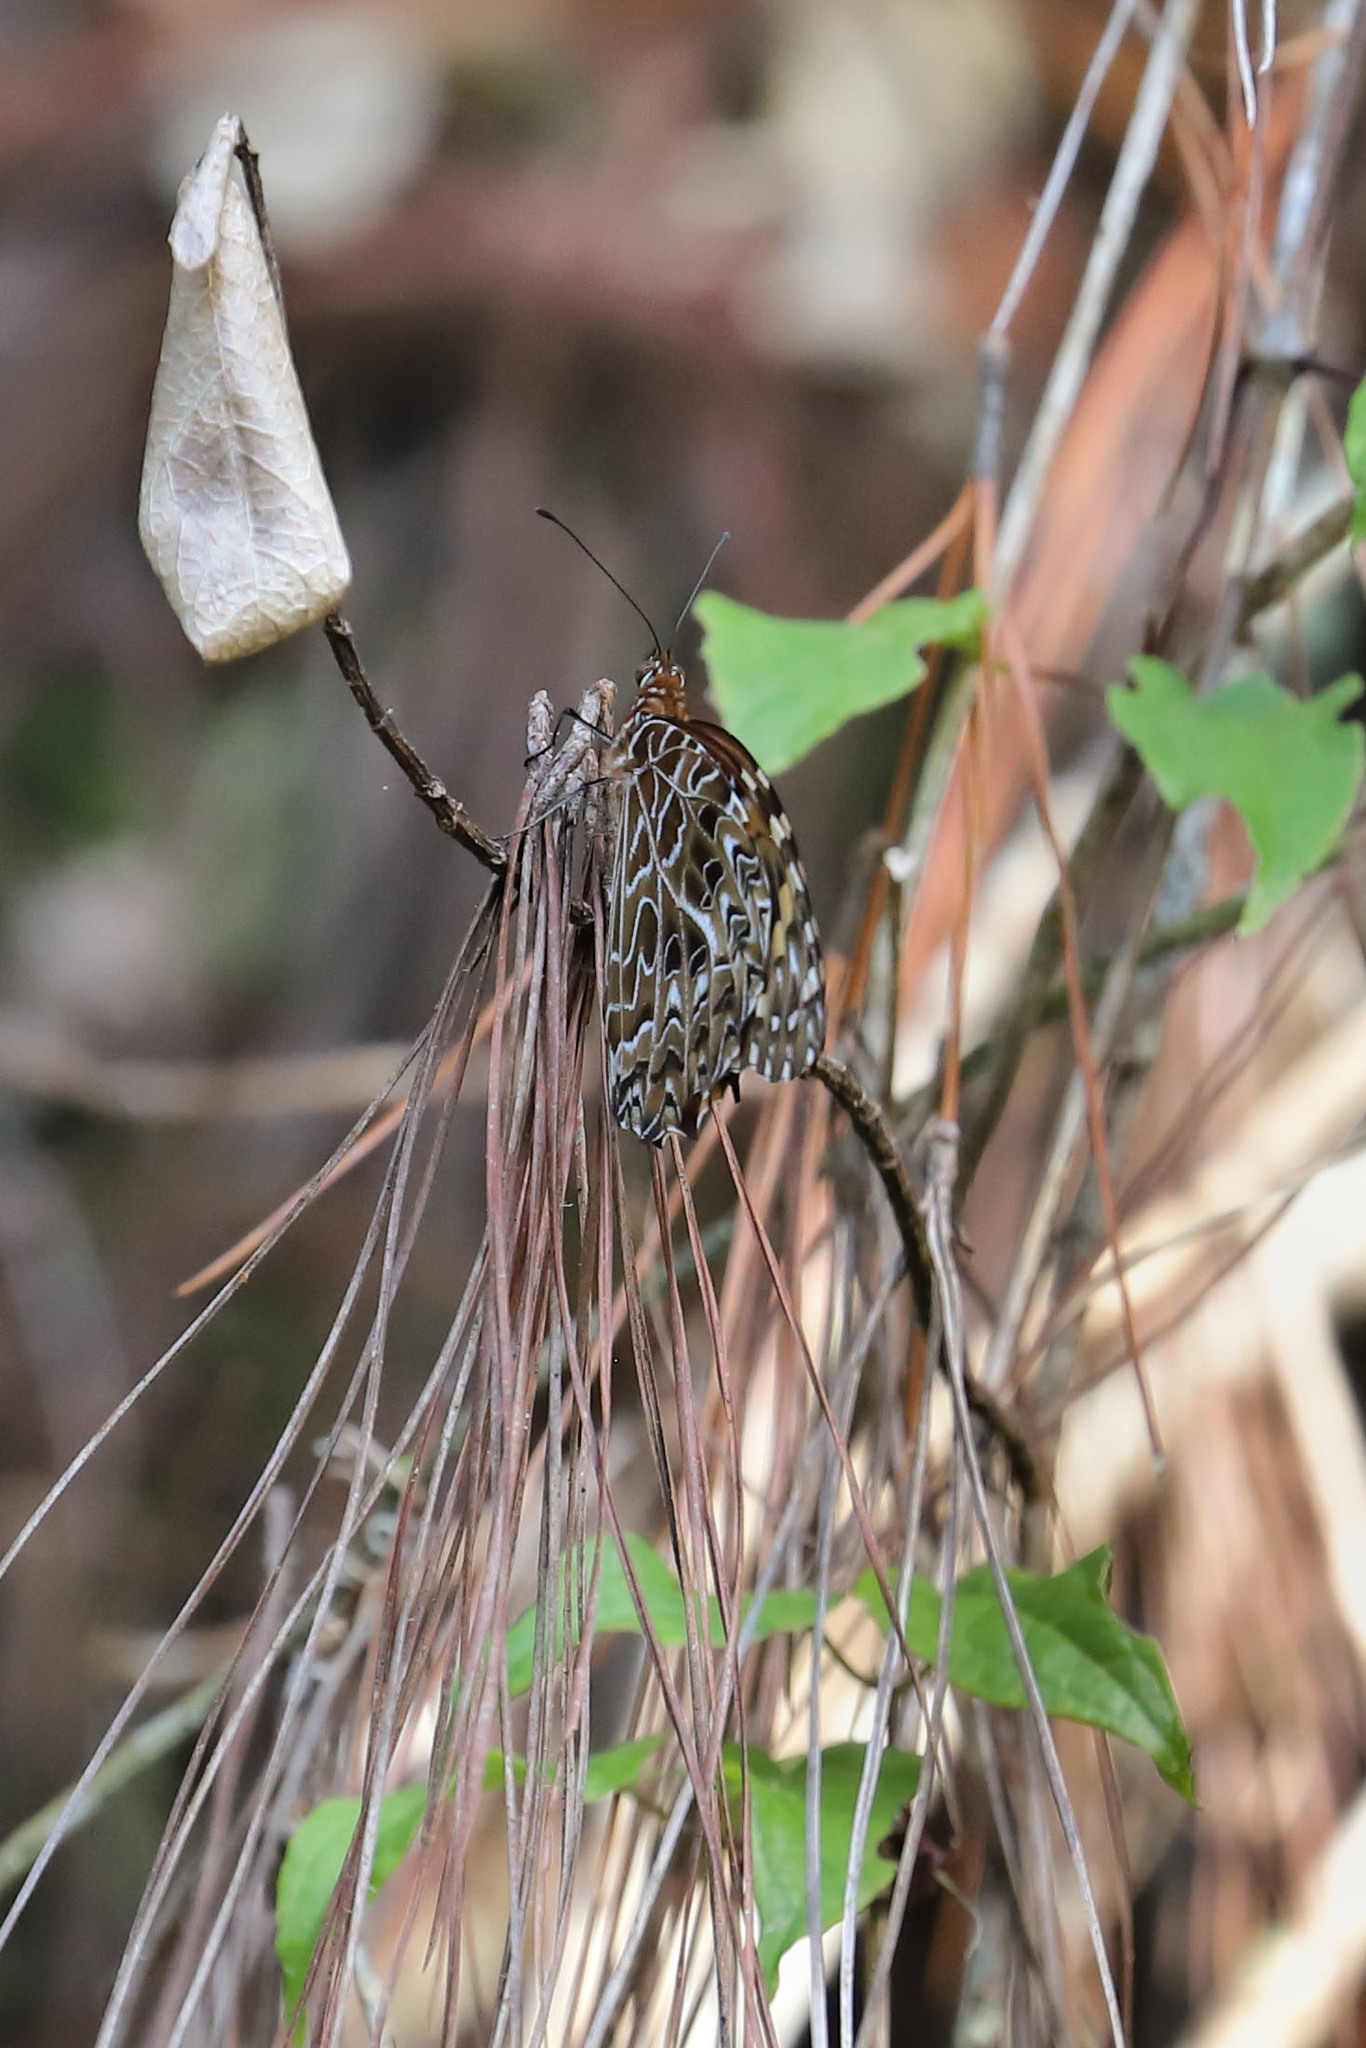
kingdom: Animalia
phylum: Arthropoda
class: Insecta
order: Lepidoptera
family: Nymphalidae
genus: Anetia
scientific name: Anetia pantheratus
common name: False fritillary
